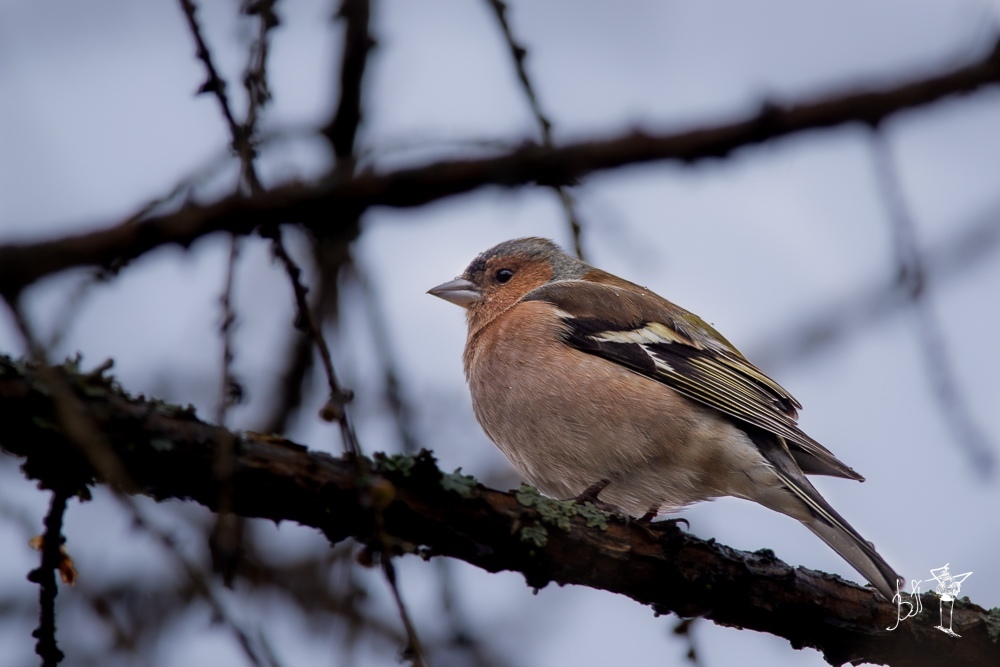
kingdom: Animalia
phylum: Chordata
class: Aves
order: Passeriformes
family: Fringillidae
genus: Fringilla
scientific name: Fringilla coelebs
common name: Common chaffinch
